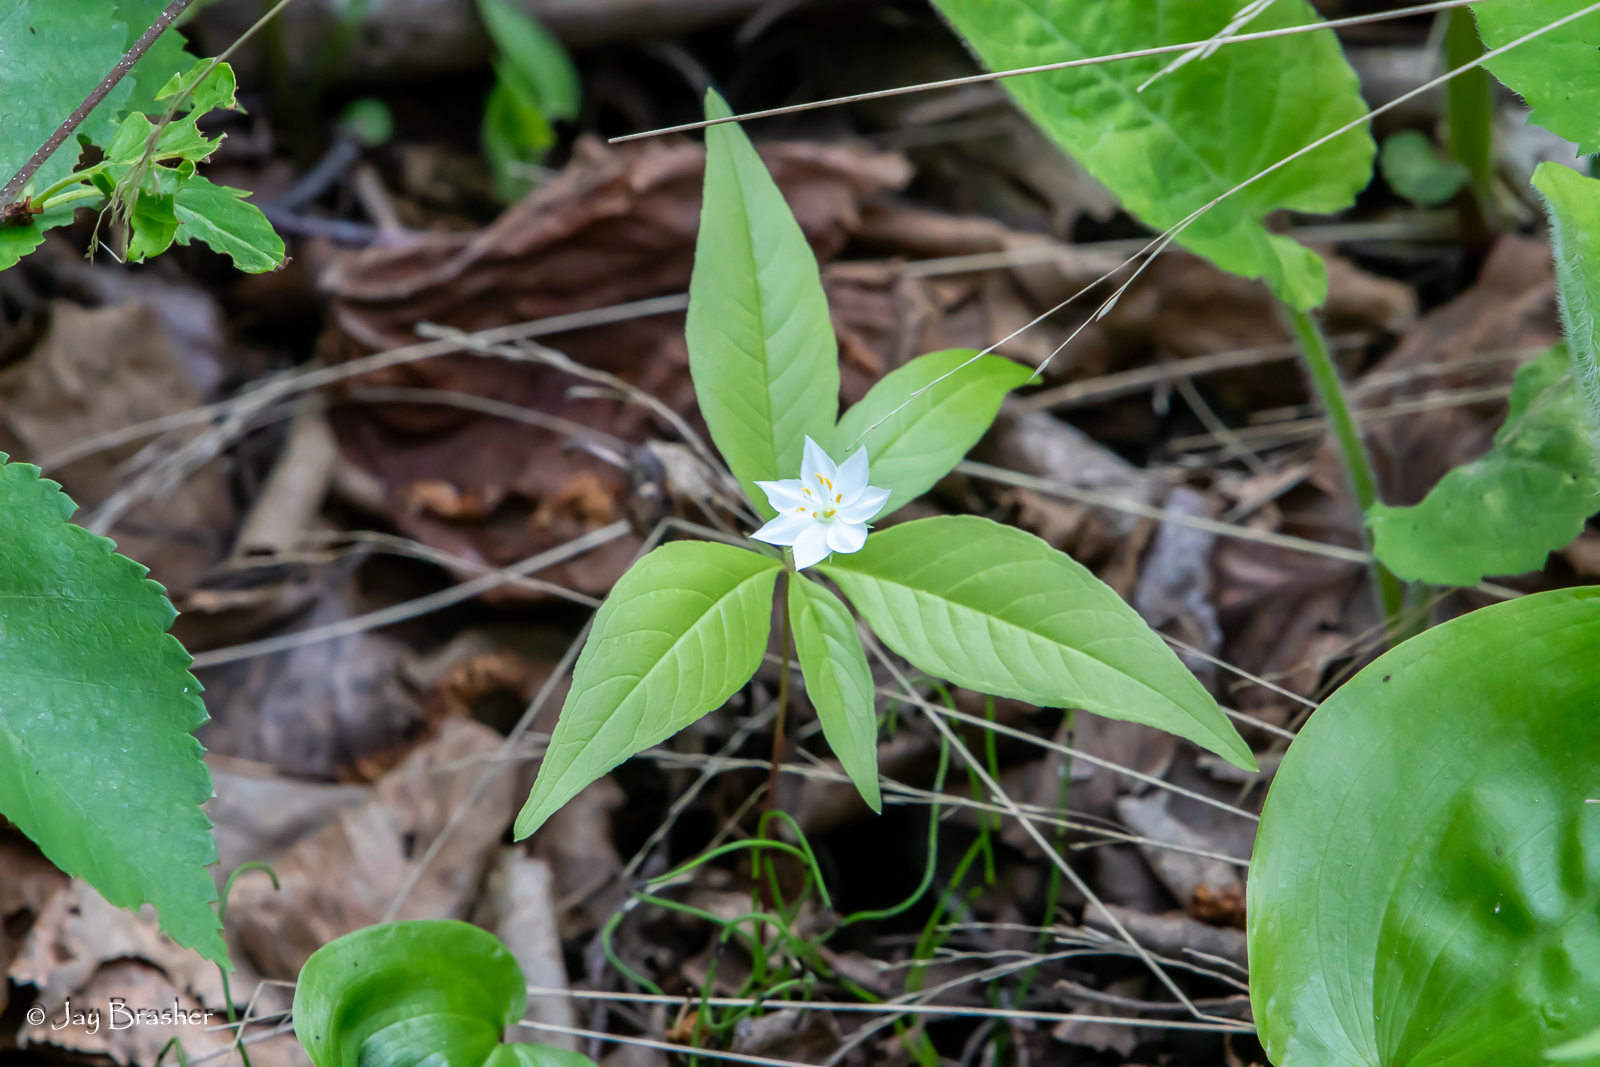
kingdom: Plantae
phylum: Tracheophyta
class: Magnoliopsida
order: Ericales
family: Primulaceae
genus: Lysimachia
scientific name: Lysimachia borealis
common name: American starflower
